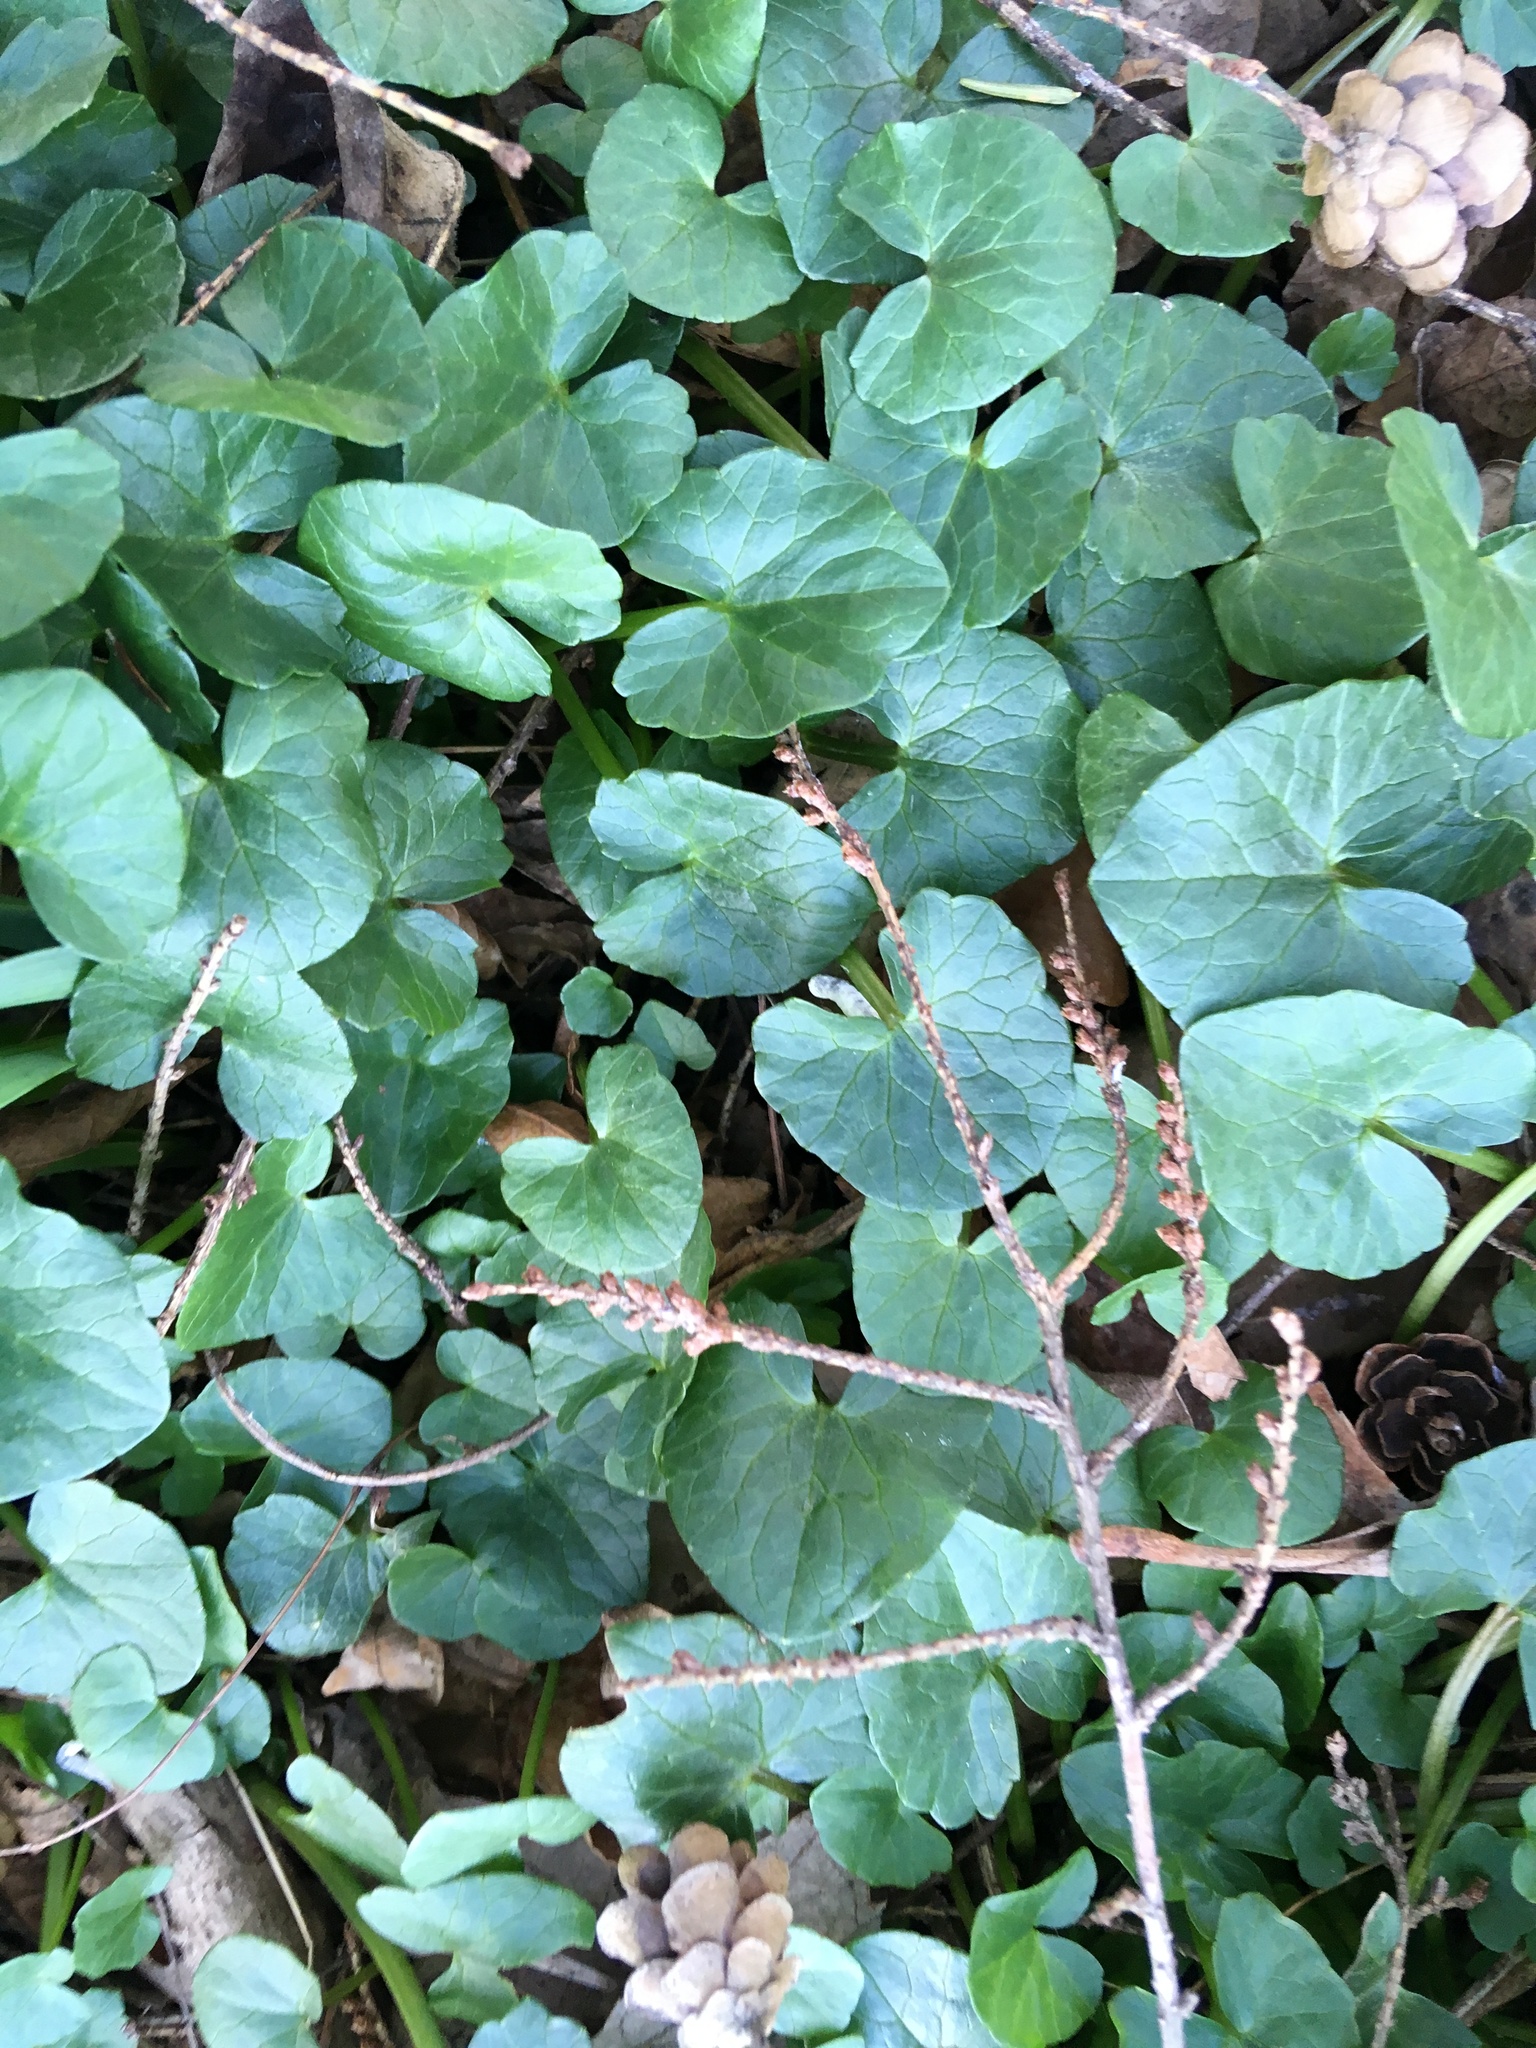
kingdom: Plantae
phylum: Tracheophyta
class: Magnoliopsida
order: Ranunculales
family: Ranunculaceae
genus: Ficaria
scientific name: Ficaria verna
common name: Lesser celandine
